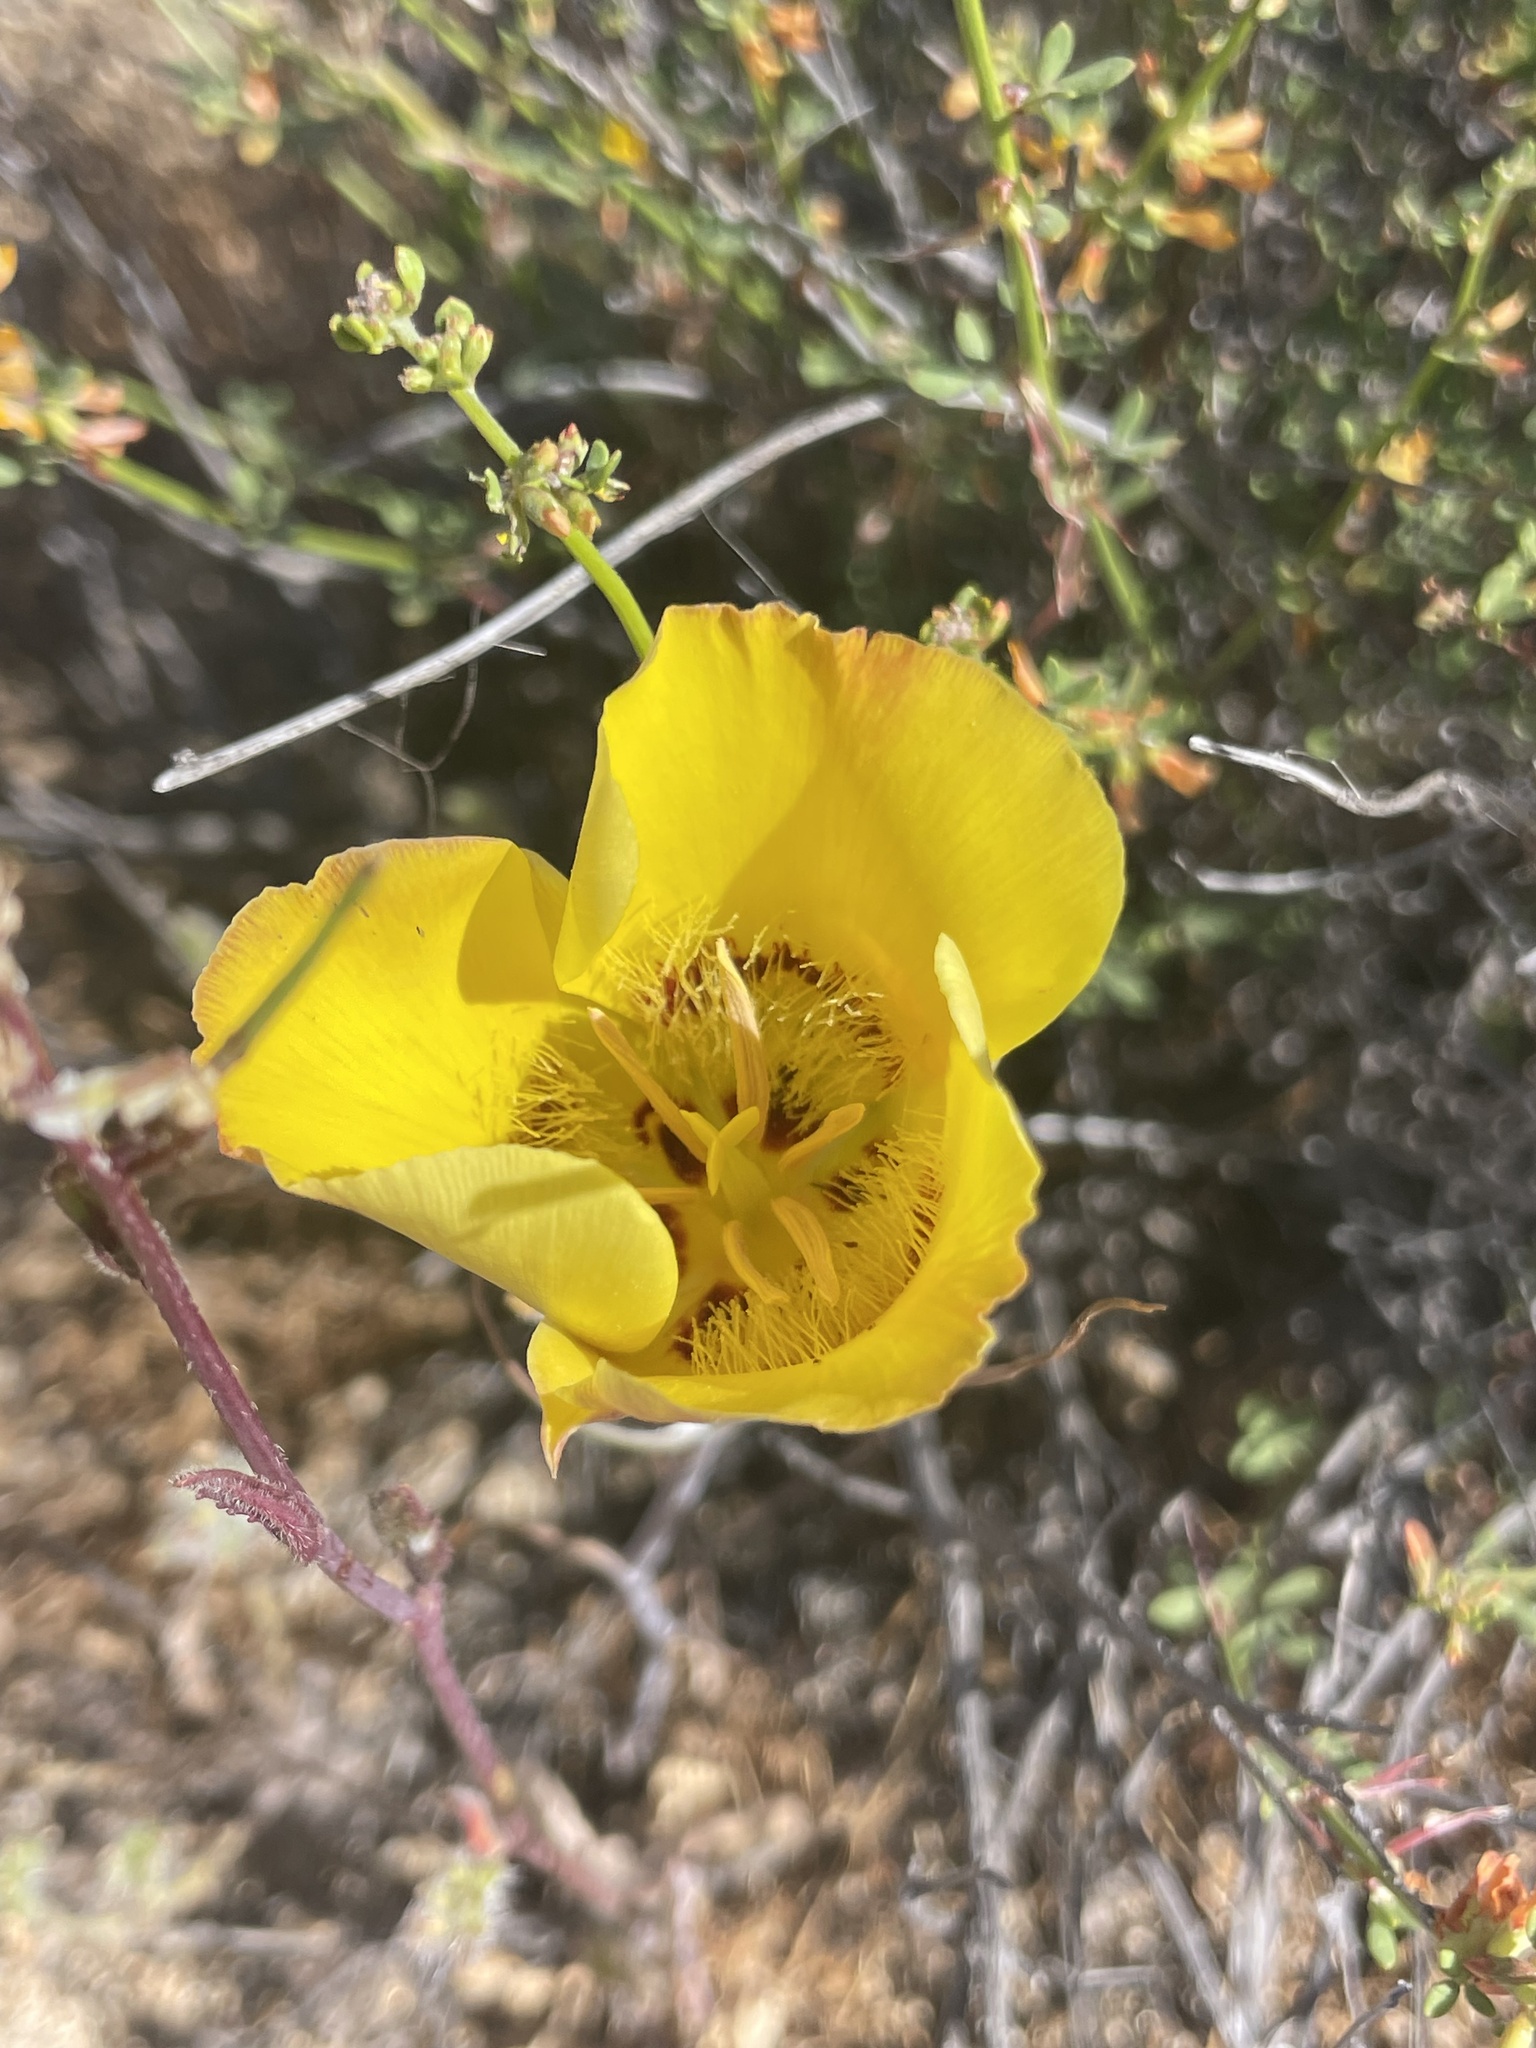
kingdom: Plantae
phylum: Tracheophyta
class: Liliopsida
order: Liliales
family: Liliaceae
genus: Calochortus
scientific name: Calochortus concolor
